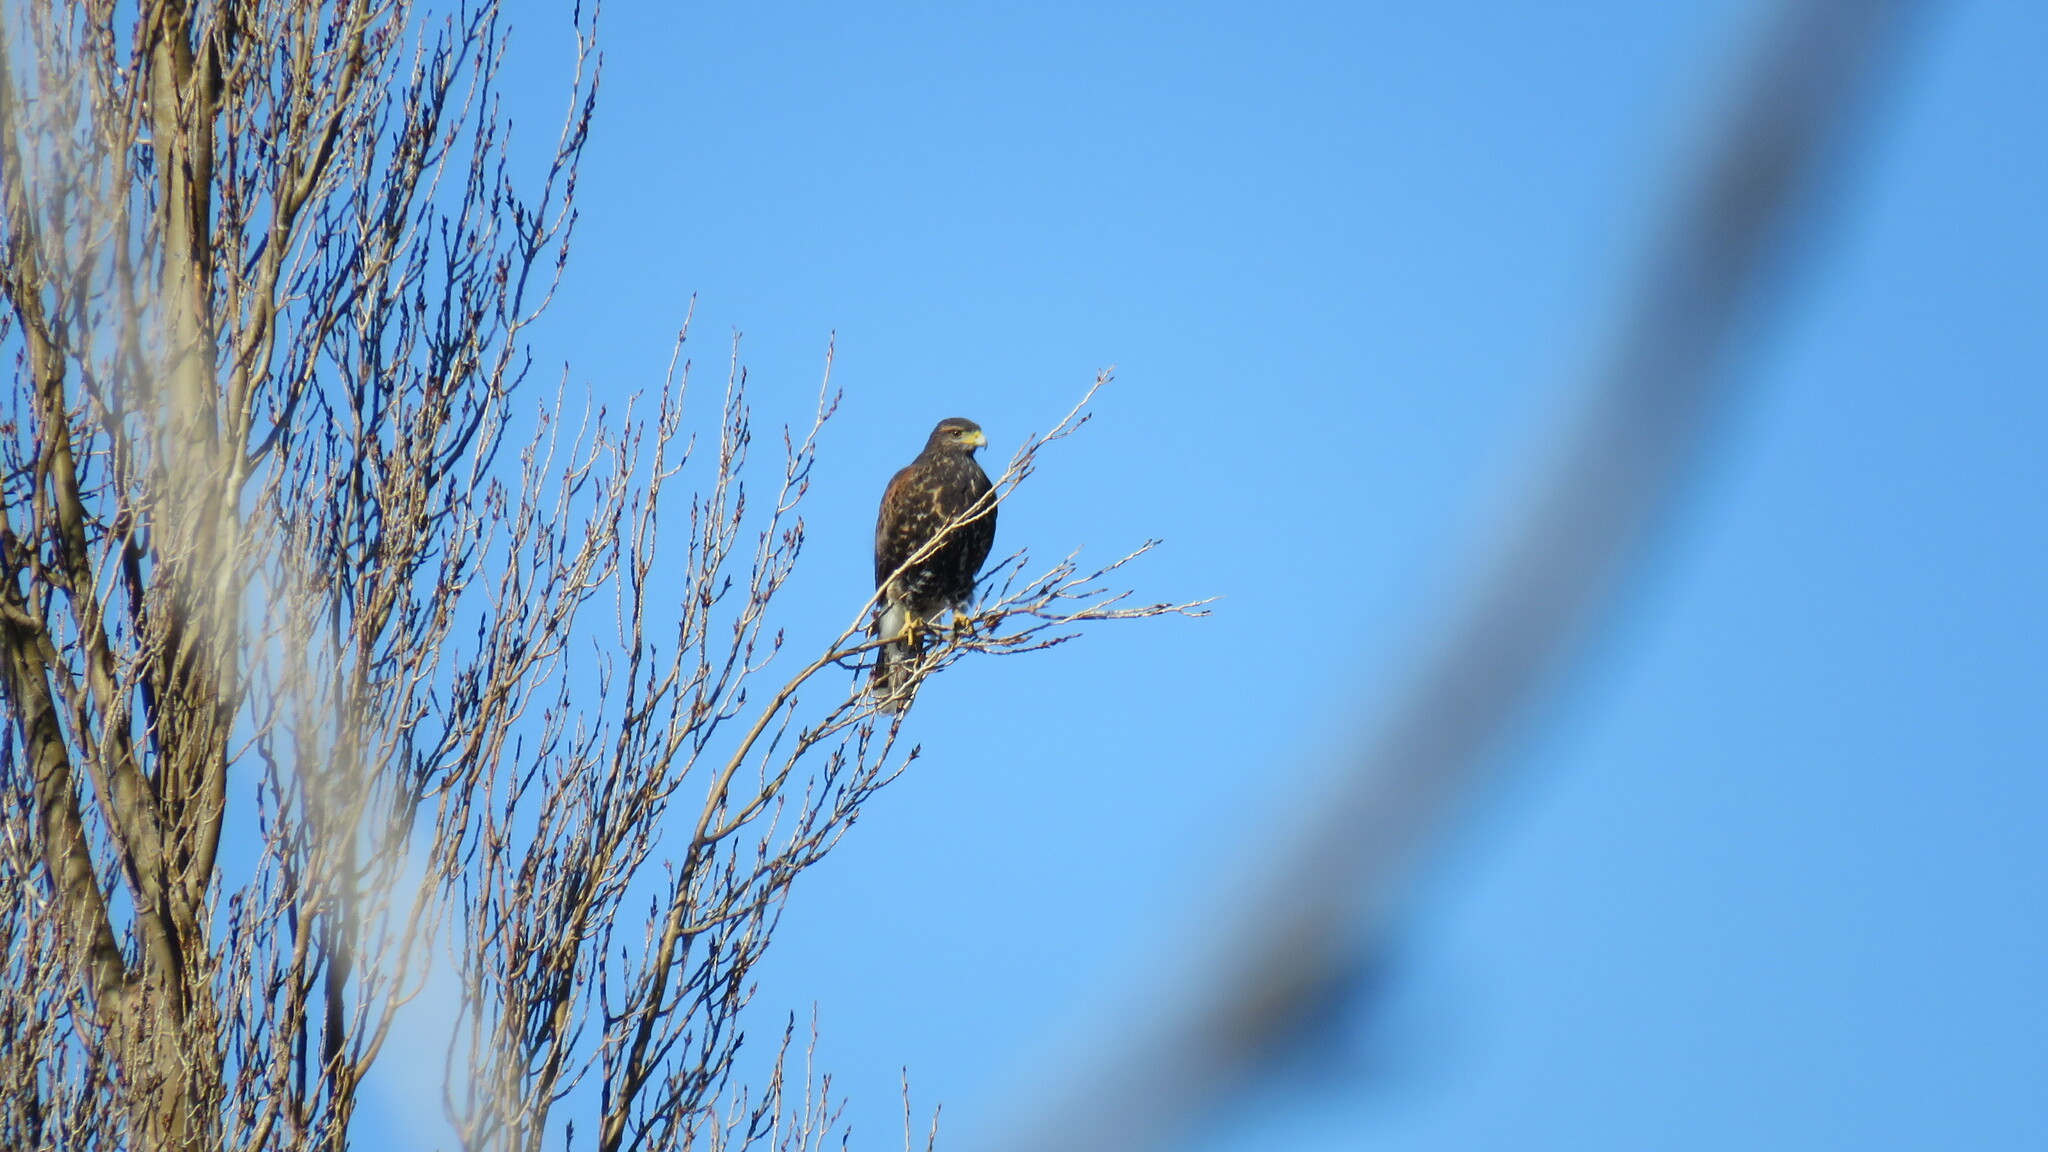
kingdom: Animalia
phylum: Chordata
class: Aves
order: Accipitriformes
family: Accipitridae
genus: Parabuteo
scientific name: Parabuteo unicinctus
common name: Harris's hawk
